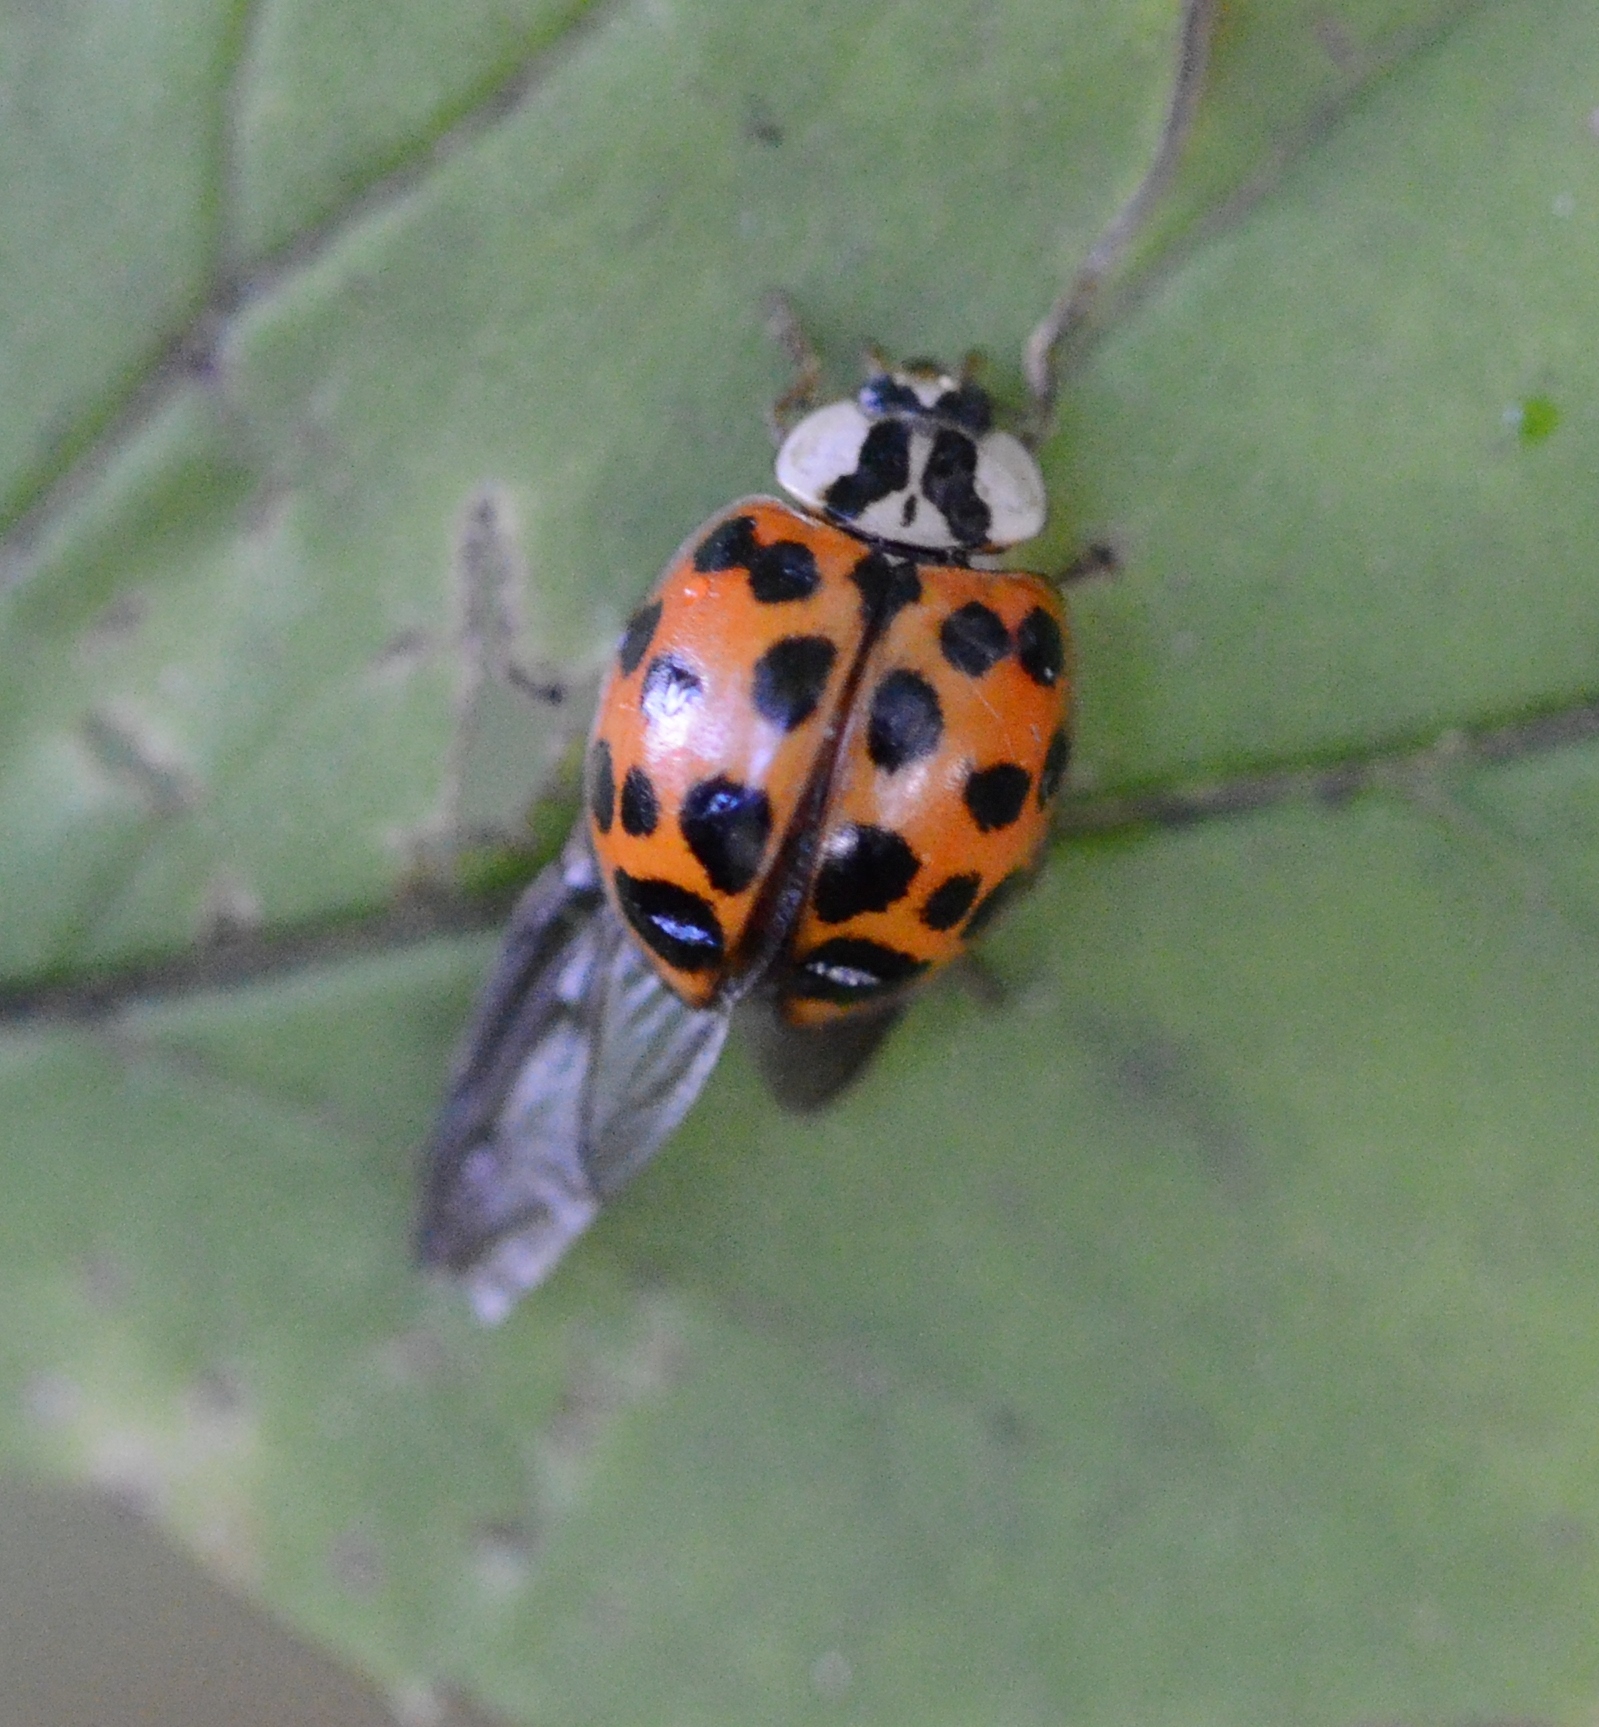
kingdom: Animalia
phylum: Arthropoda
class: Insecta
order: Coleoptera
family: Coccinellidae
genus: Harmonia
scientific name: Harmonia axyridis
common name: Harlequin ladybird
